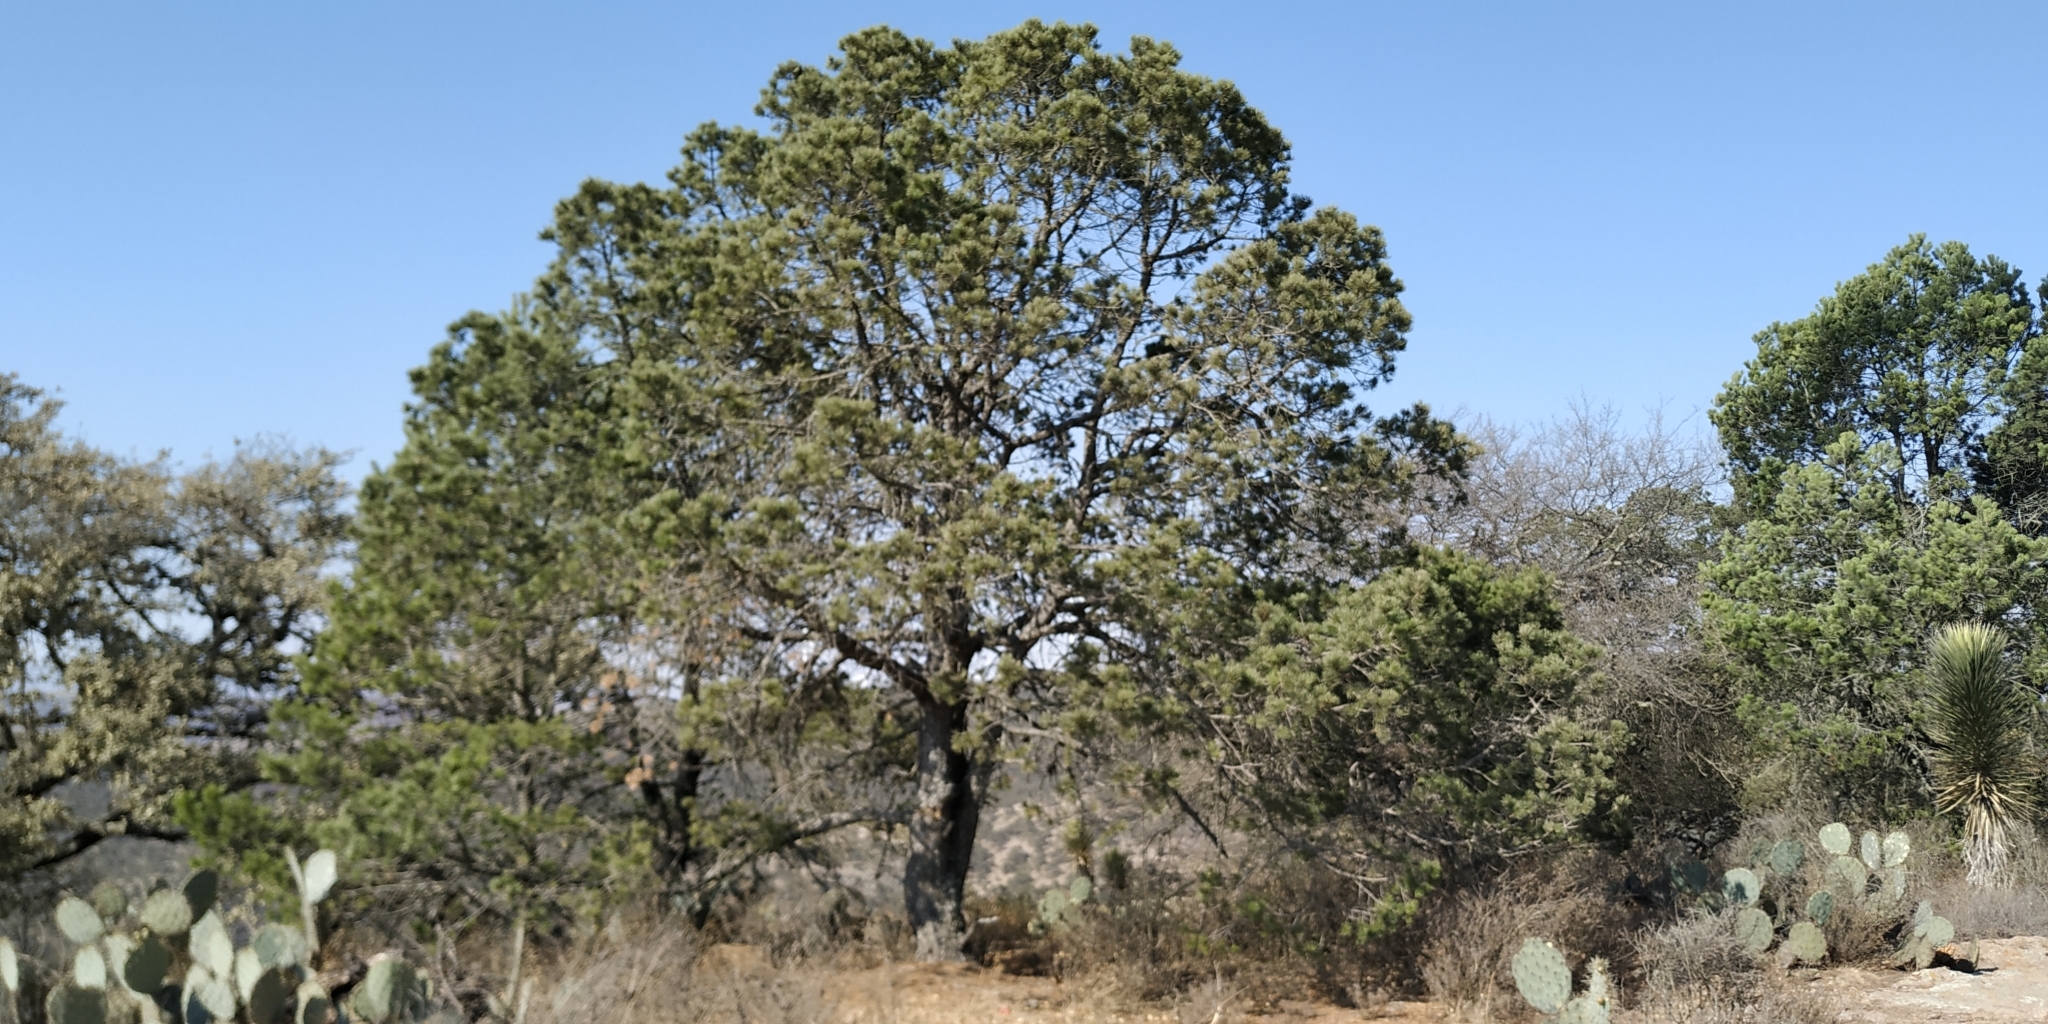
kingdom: Plantae
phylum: Tracheophyta
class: Pinopsida
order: Pinales
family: Pinaceae
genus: Pinus
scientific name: Pinus cembroides
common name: Mexican nut pine
